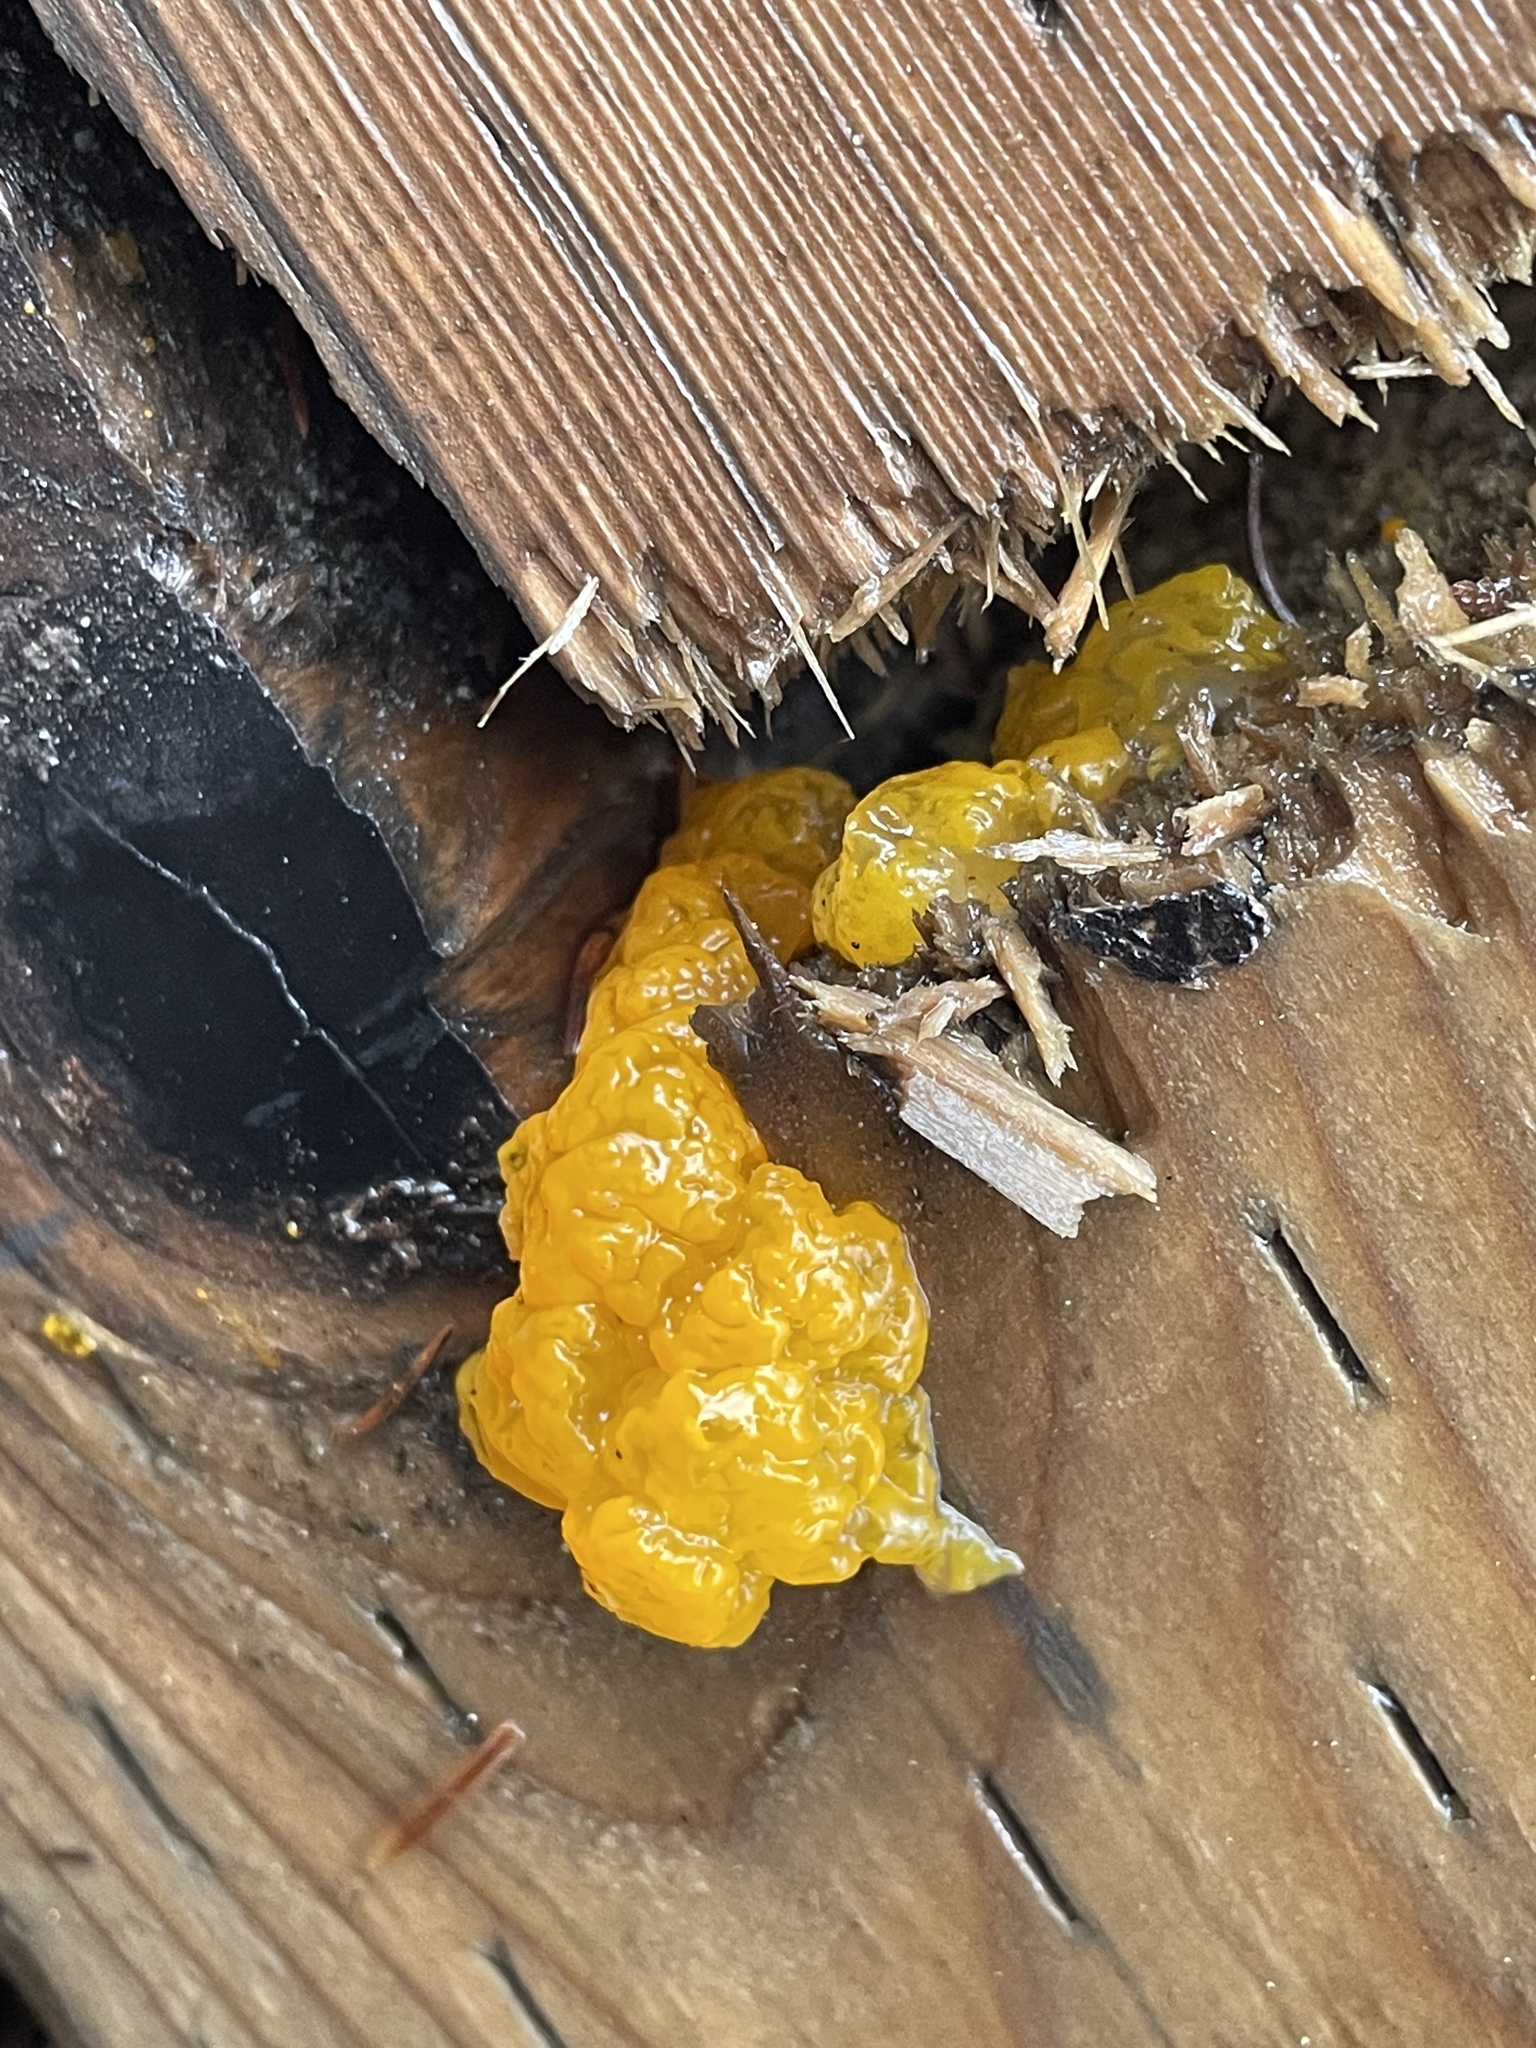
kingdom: Fungi
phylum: Basidiomycota
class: Dacrymycetes
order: Dacrymycetales
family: Dacrymycetaceae
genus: Dacrymyces
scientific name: Dacrymyces chrysospermus
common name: Orange jelly spot
